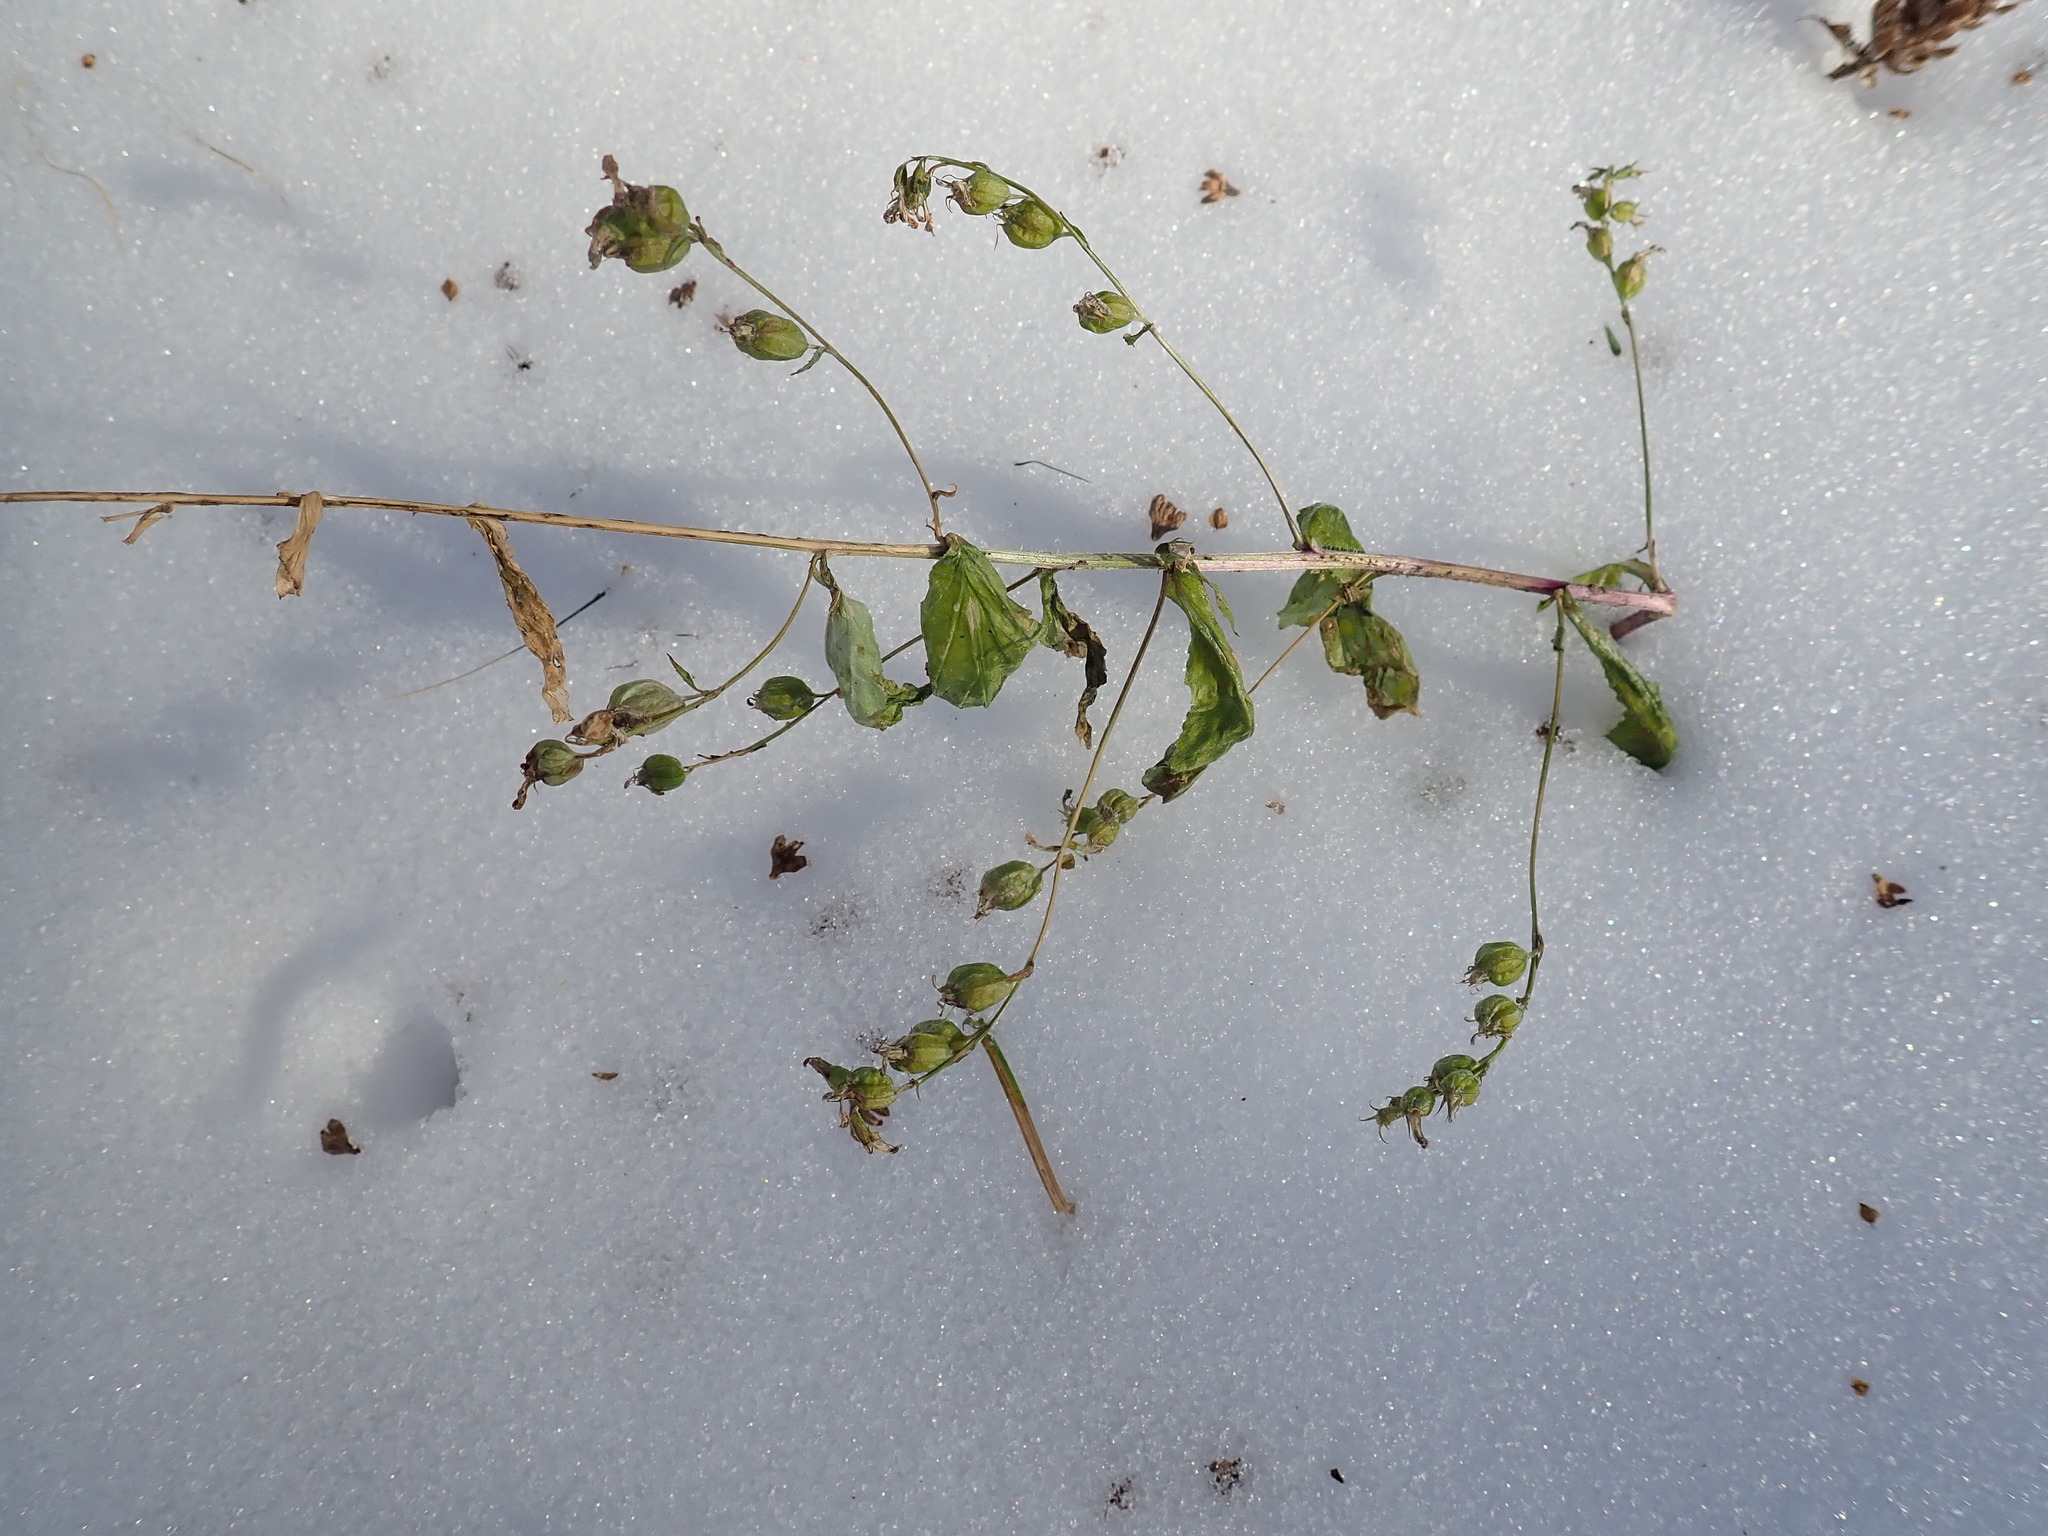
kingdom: Plantae
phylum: Tracheophyta
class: Magnoliopsida
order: Asterales
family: Campanulaceae
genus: Lobelia
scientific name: Lobelia inflata
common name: Indian tobacco
